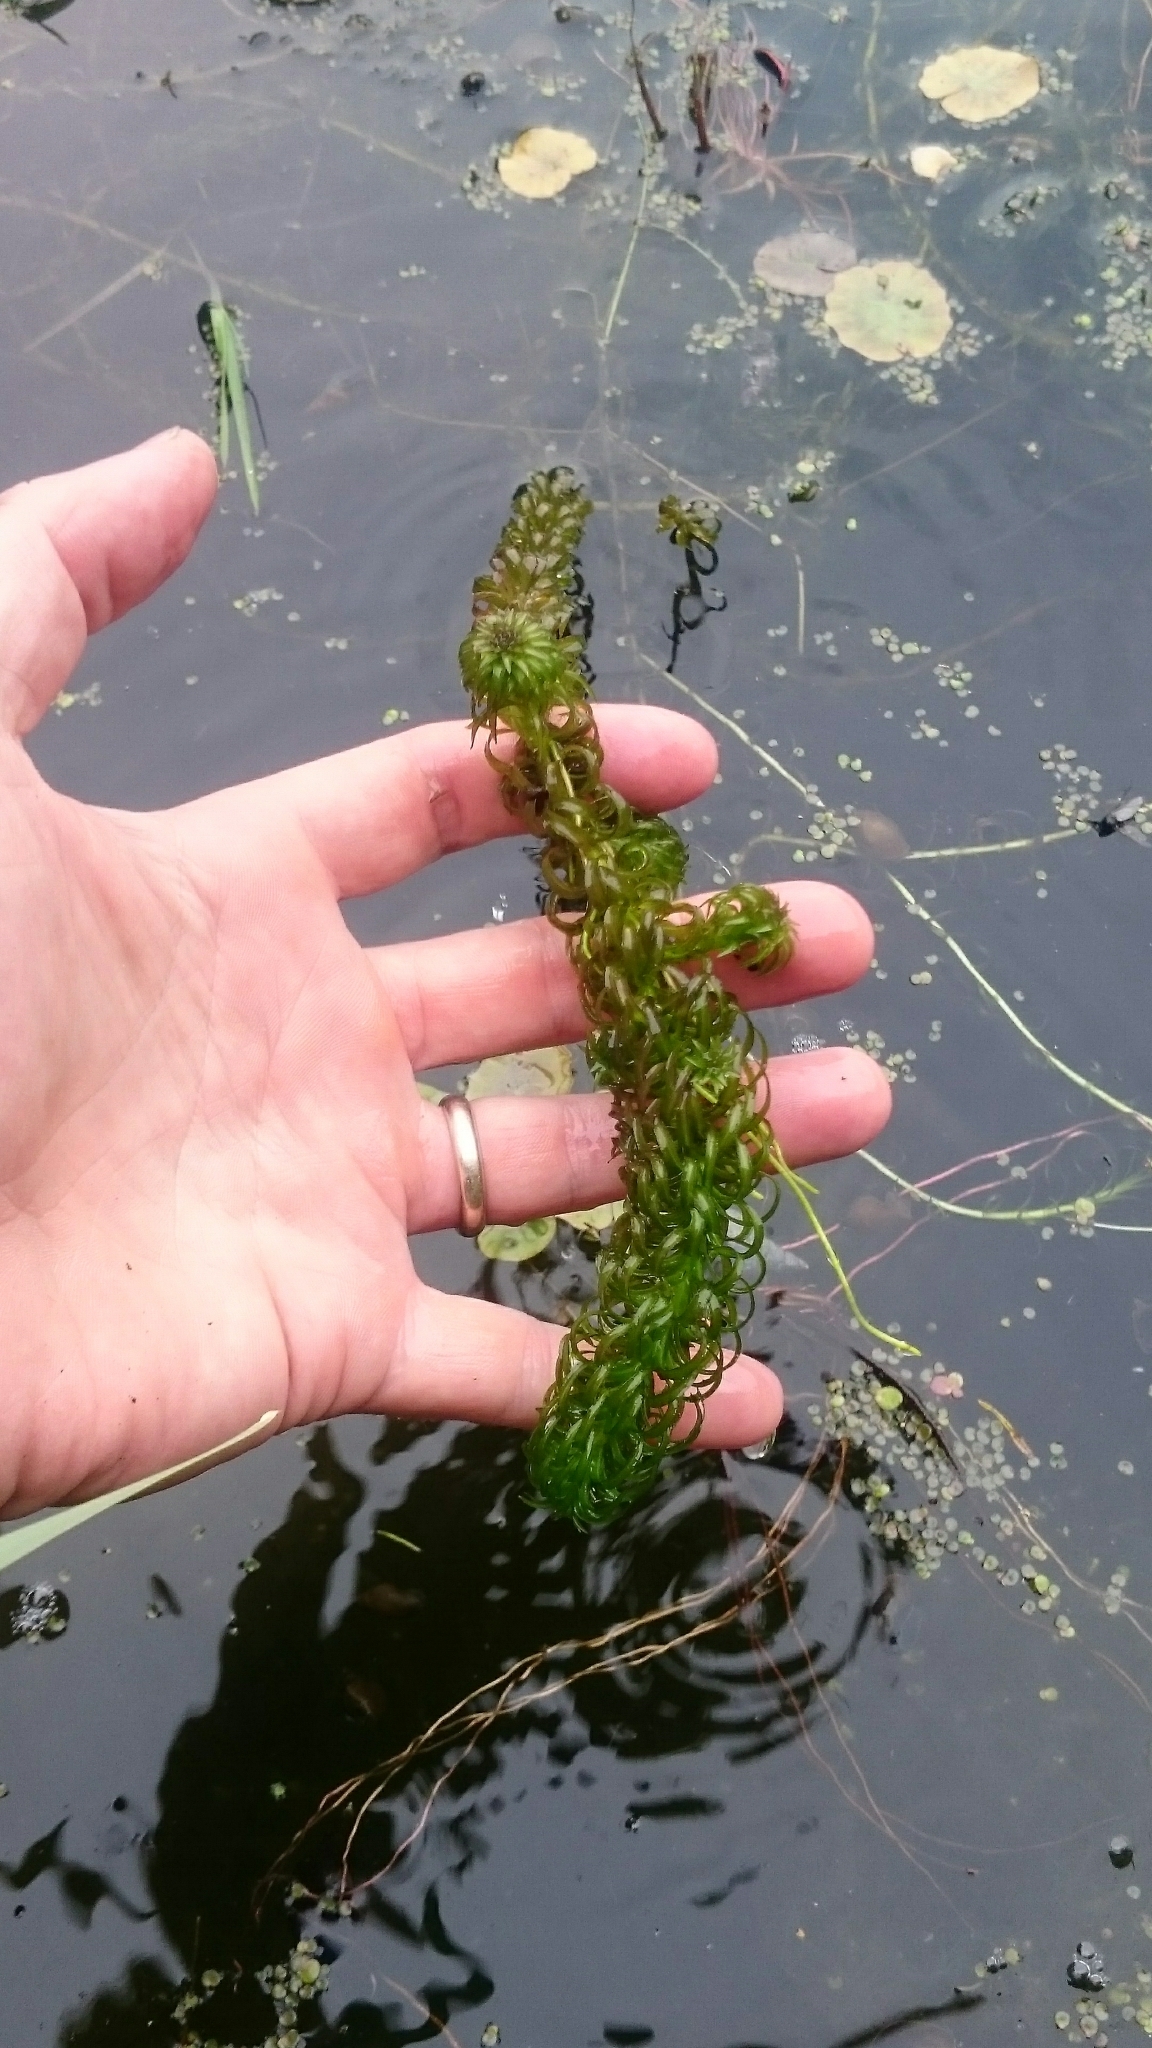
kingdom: Plantae
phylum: Tracheophyta
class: Liliopsida
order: Alismatales
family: Hydrocharitaceae
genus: Lagarosiphon
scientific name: Lagarosiphon major
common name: Curly waterweed
